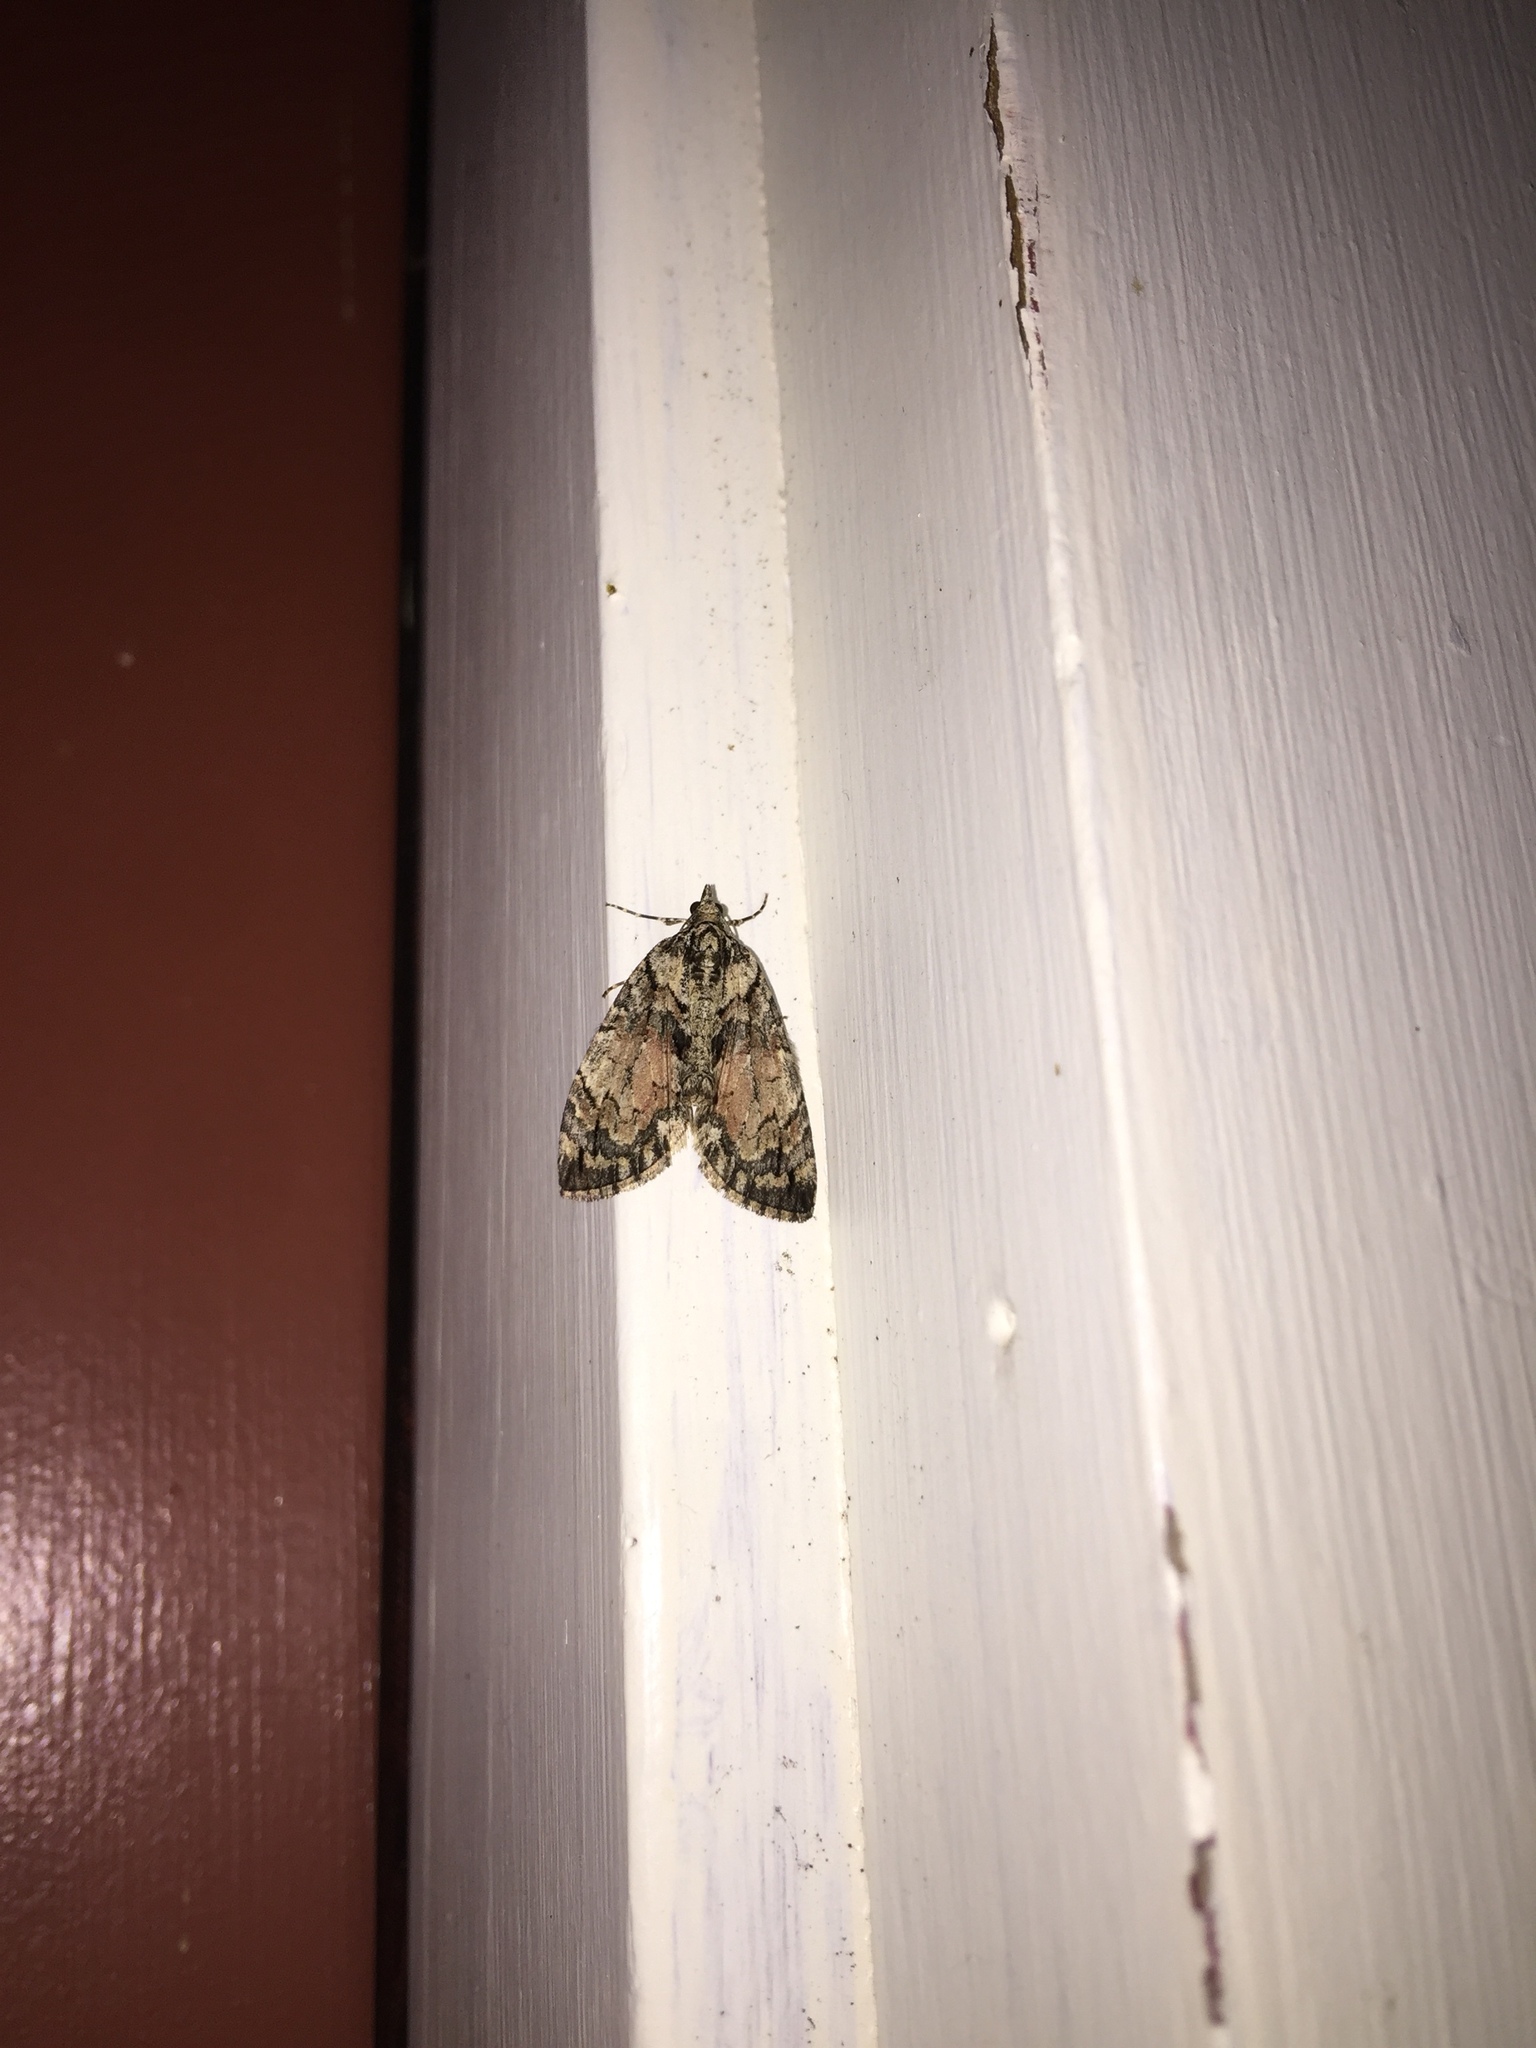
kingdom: Animalia
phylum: Arthropoda
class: Insecta
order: Lepidoptera
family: Geometridae
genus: Hydriomena
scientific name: Hydriomena perfracta
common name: Shattered hydriomena moth
